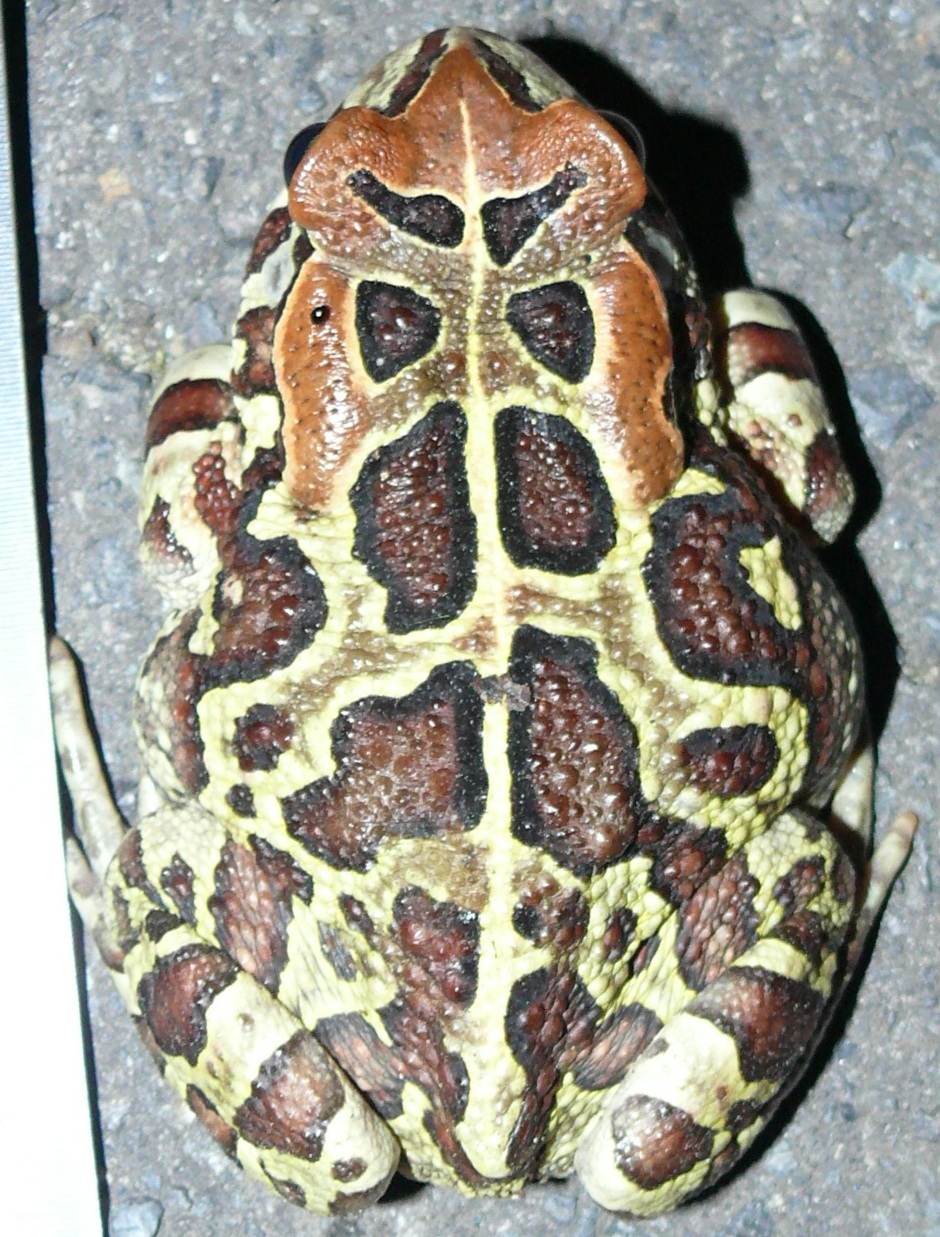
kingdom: Animalia
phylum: Chordata
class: Amphibia
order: Anura
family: Bufonidae
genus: Sclerophrys
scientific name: Sclerophrys pantherina
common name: Panther toad
